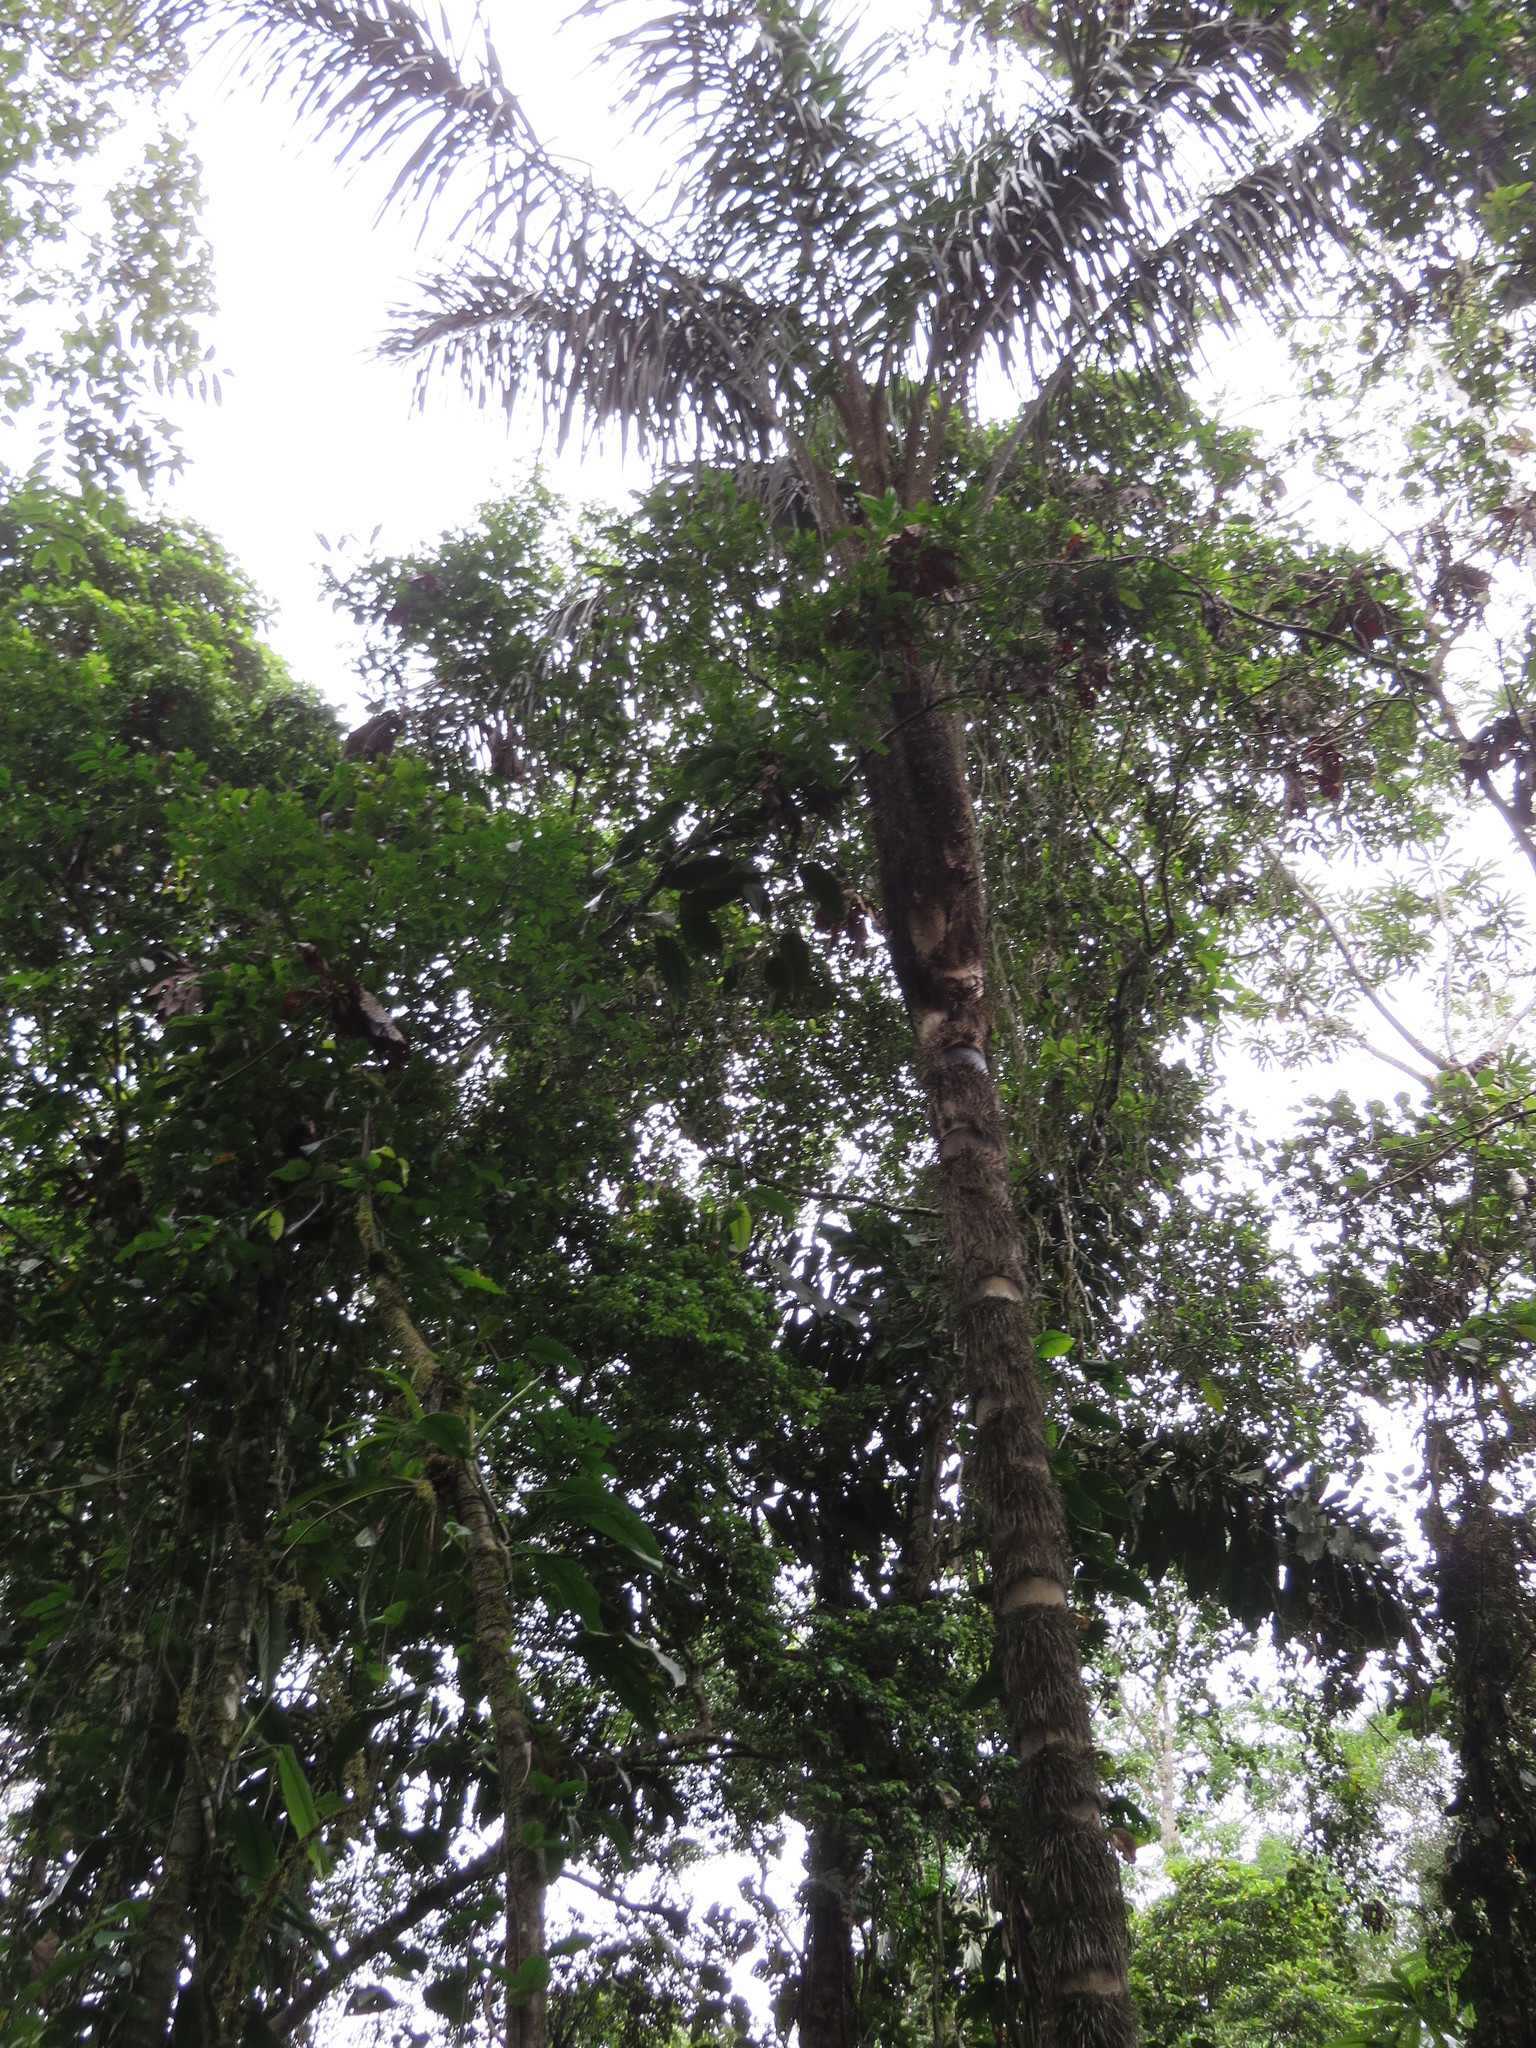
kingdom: Plantae
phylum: Tracheophyta
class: Liliopsida
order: Arecales
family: Arecaceae
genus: Astrocaryum
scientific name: Astrocaryum chambira
